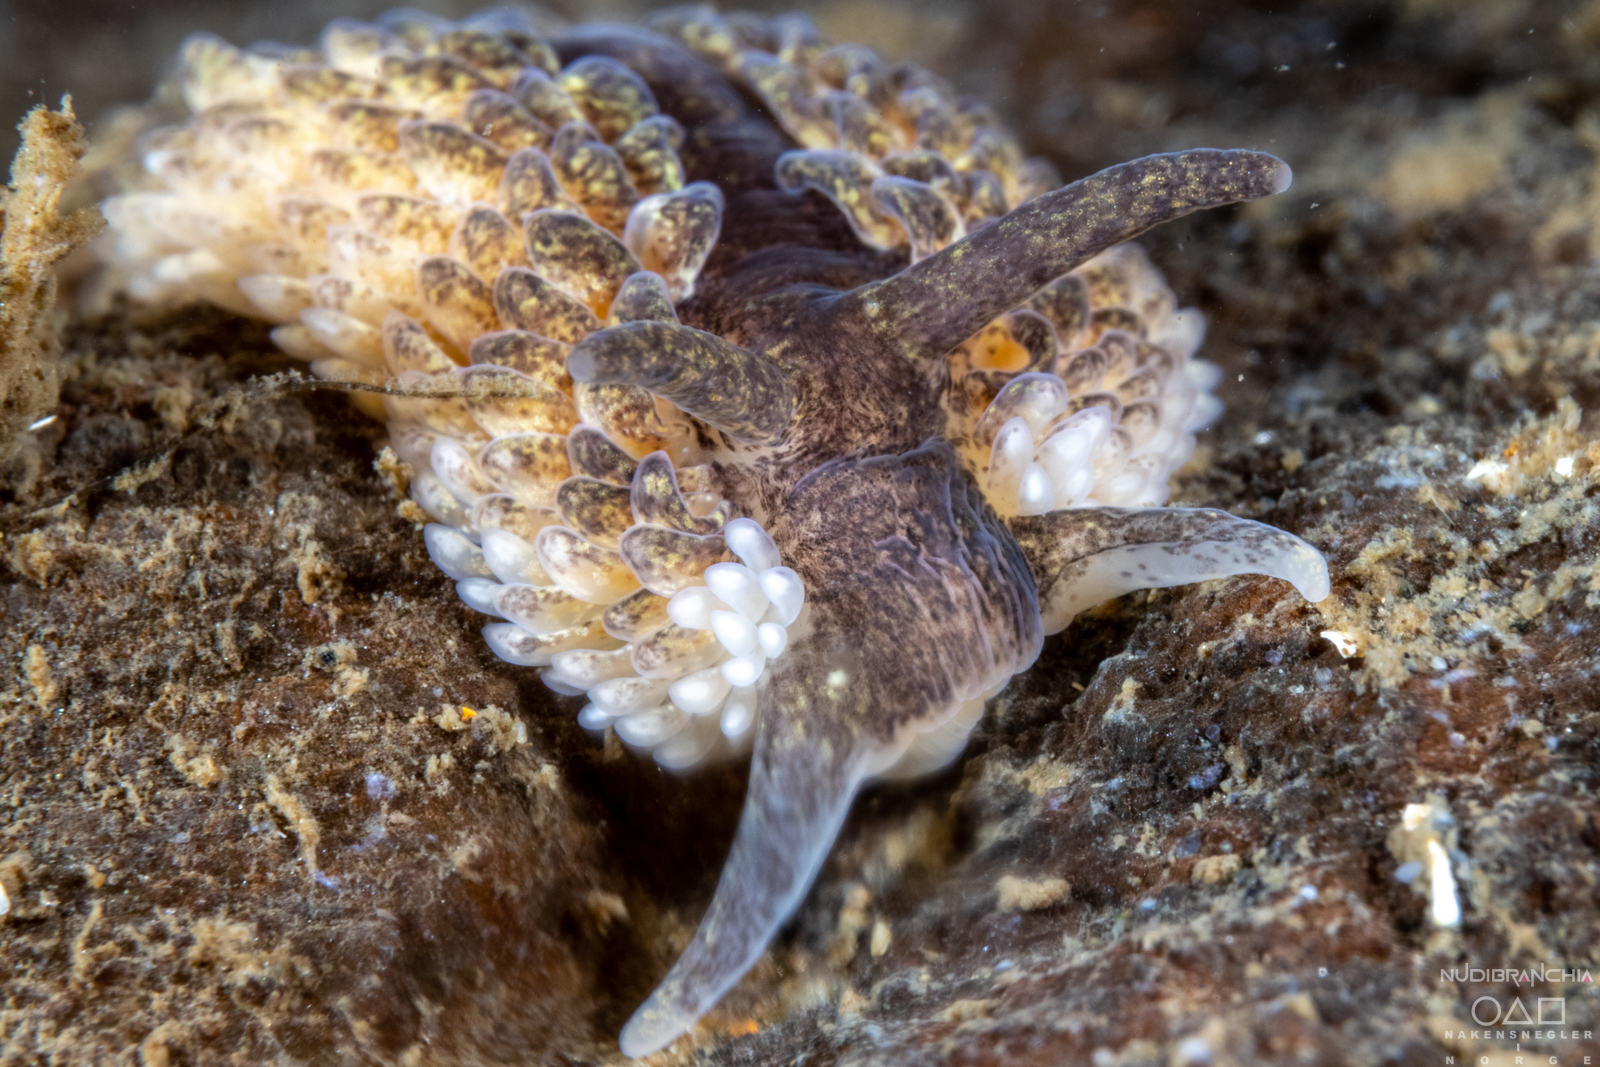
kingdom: Animalia
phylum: Mollusca
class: Gastropoda
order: Nudibranchia
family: Aeolidiidae
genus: Aeolidia
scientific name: Aeolidia papillosa
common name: Common grey sea slug
